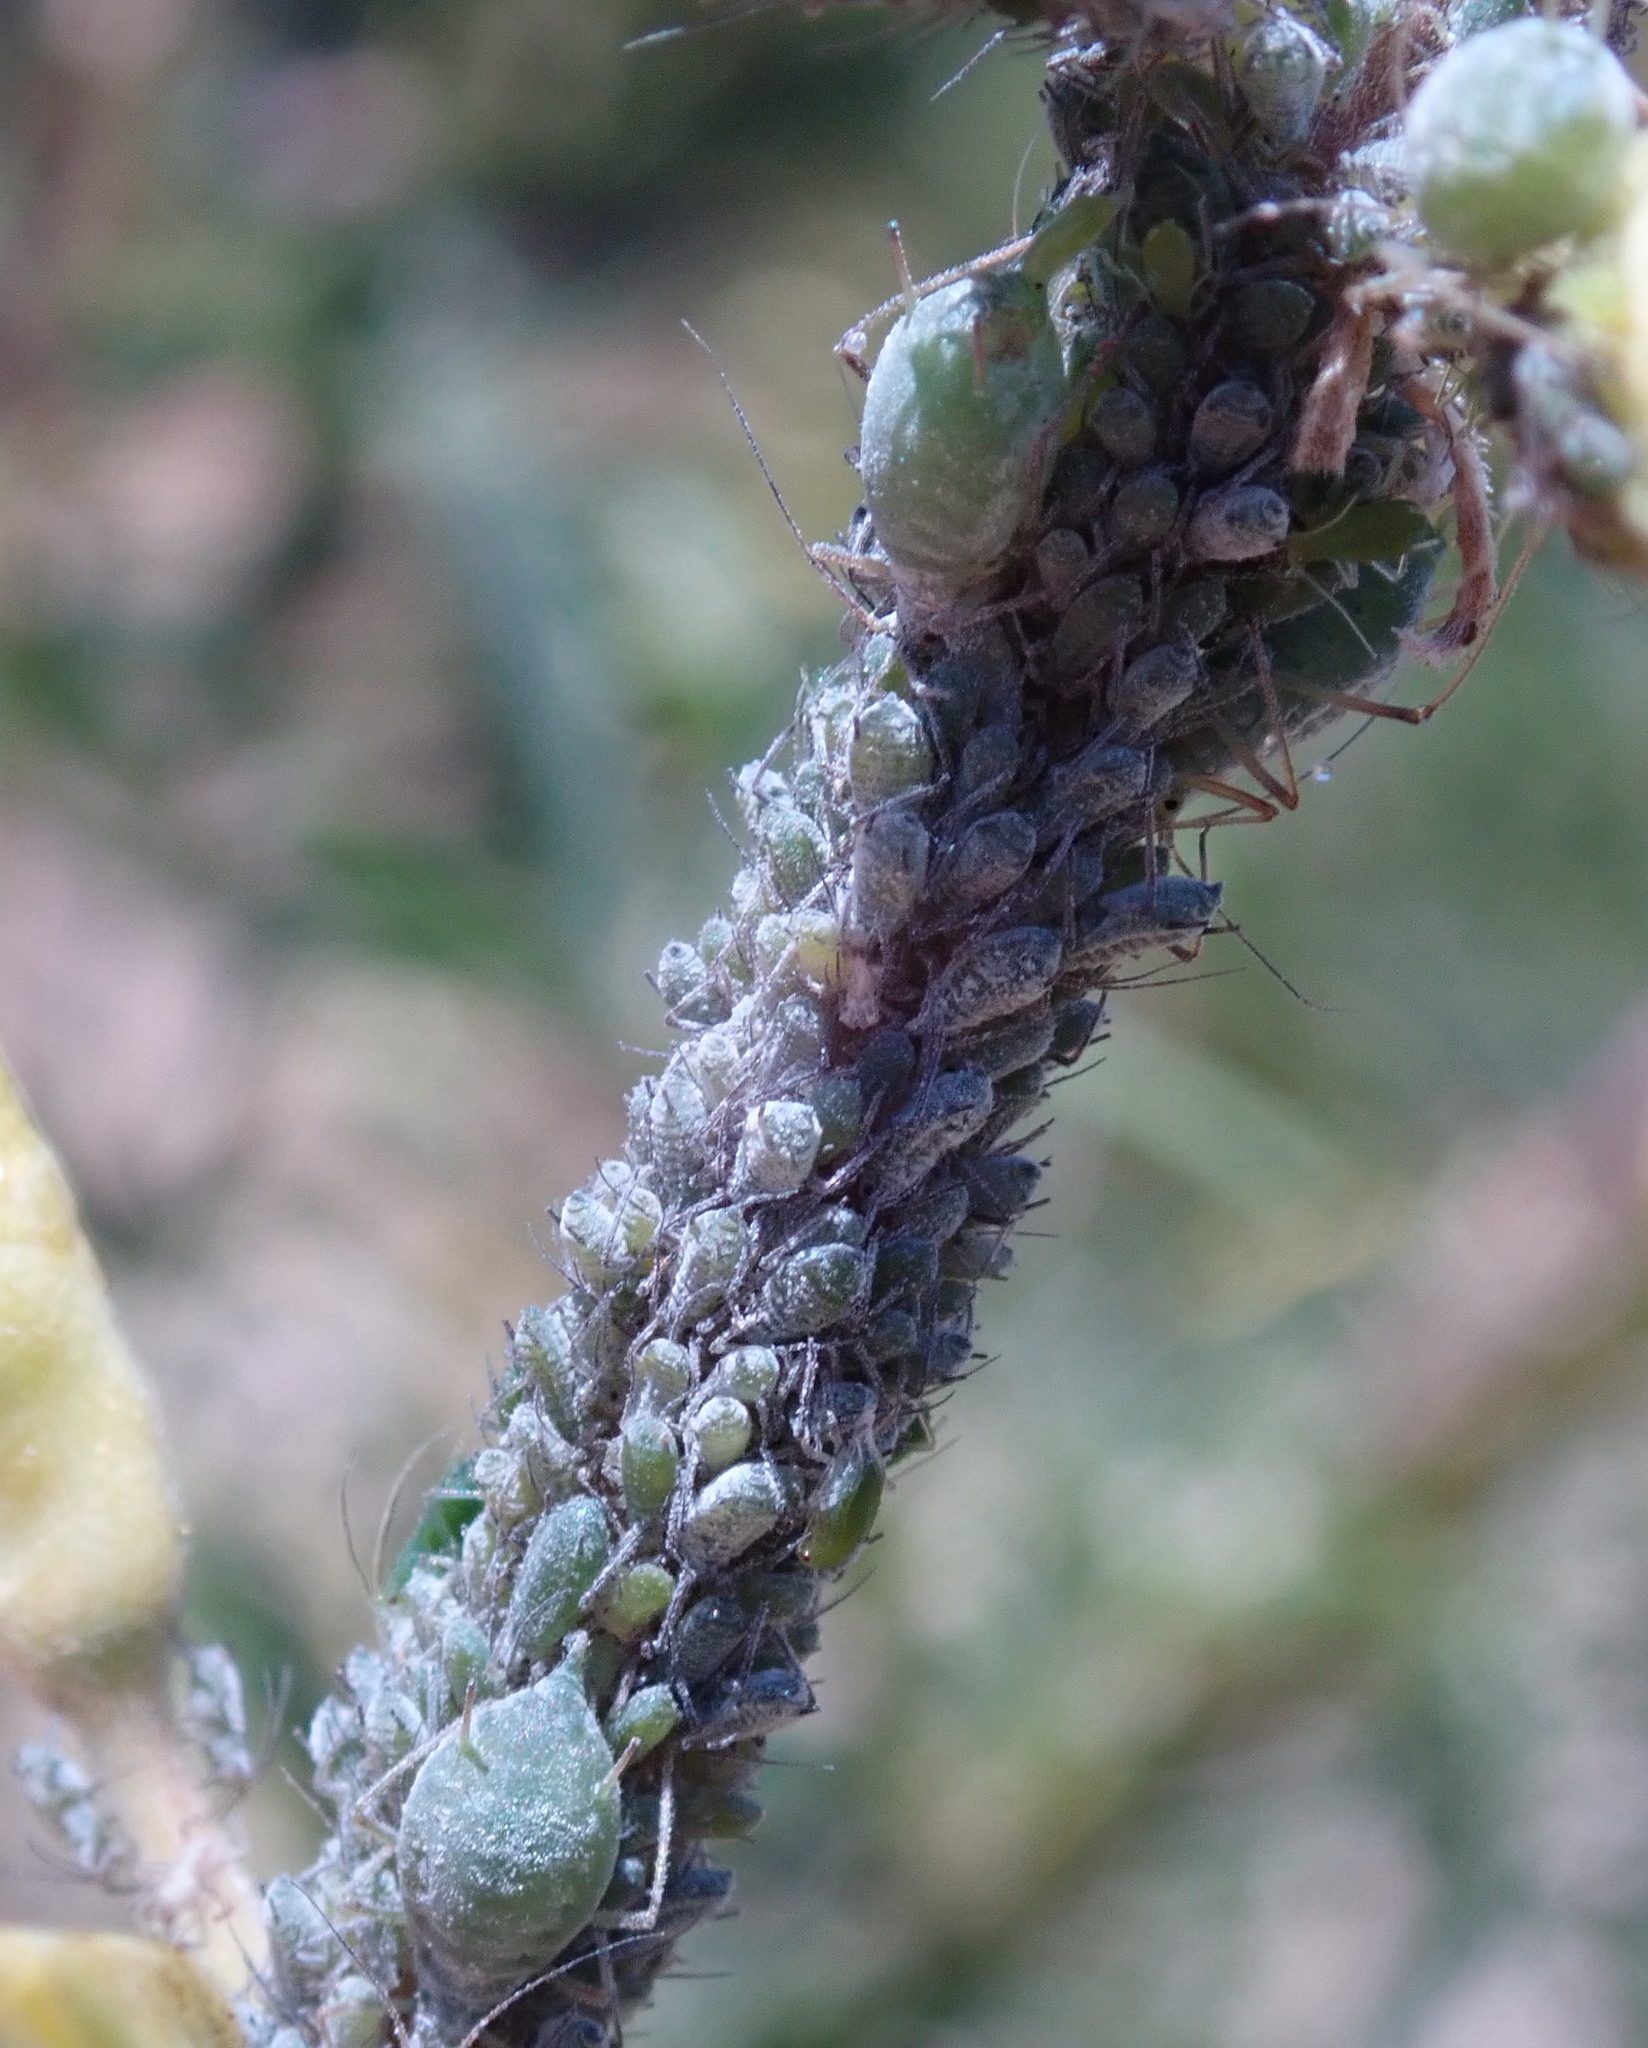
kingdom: Animalia
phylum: Arthropoda
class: Insecta
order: Hemiptera
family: Aphididae
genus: Macrosiphum
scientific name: Macrosiphum albifrons
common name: Lupine aphid
